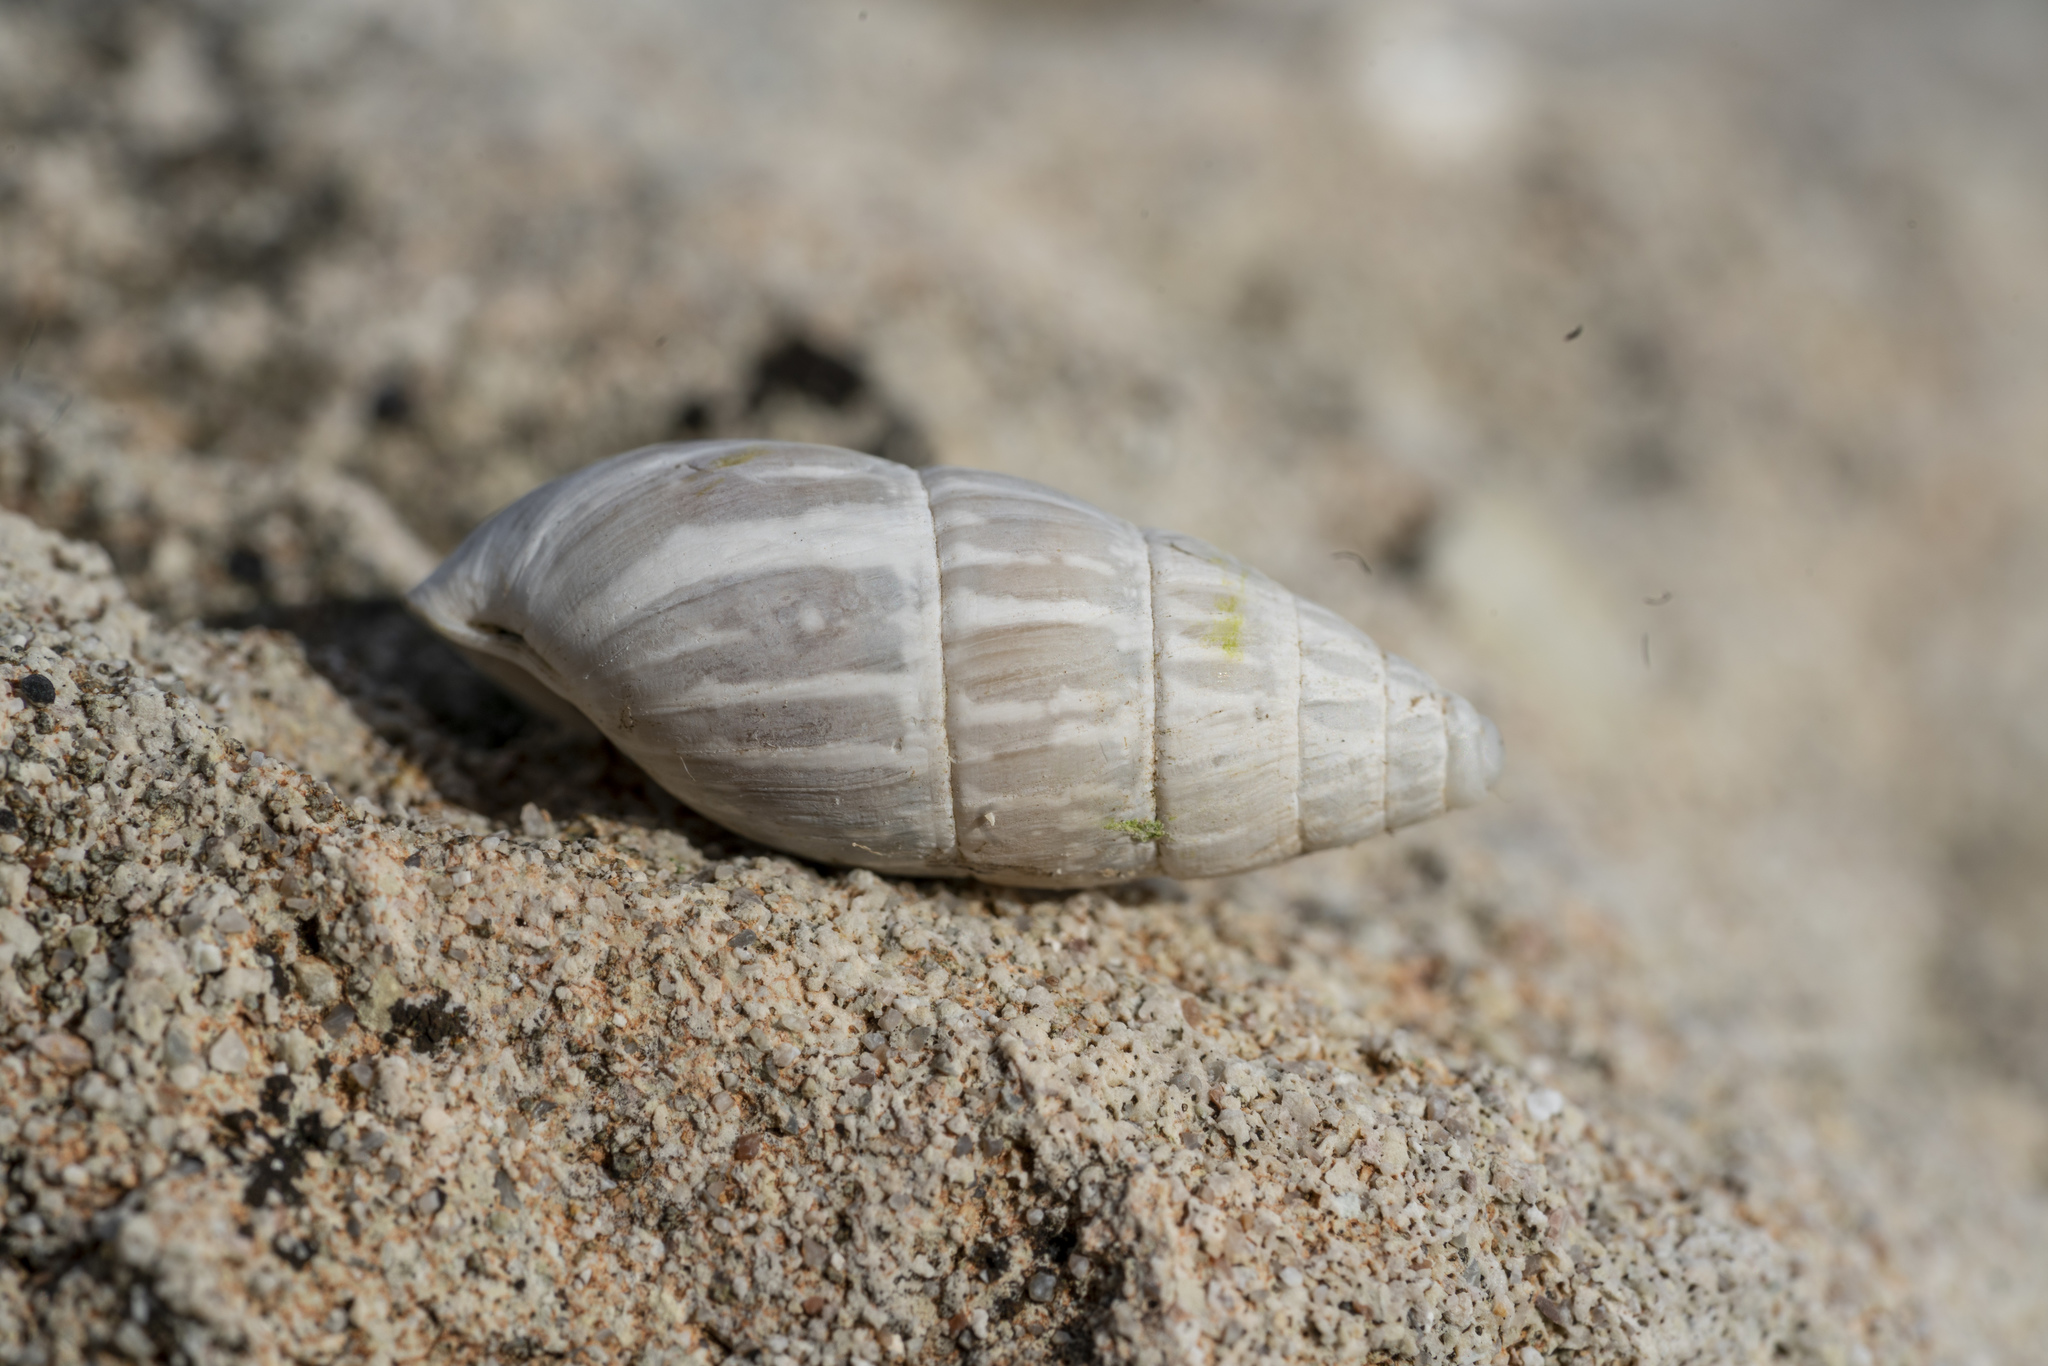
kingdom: Animalia
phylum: Mollusca
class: Gastropoda
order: Stylommatophora
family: Enidae
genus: Zebrina
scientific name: Zebrina fasciolata
